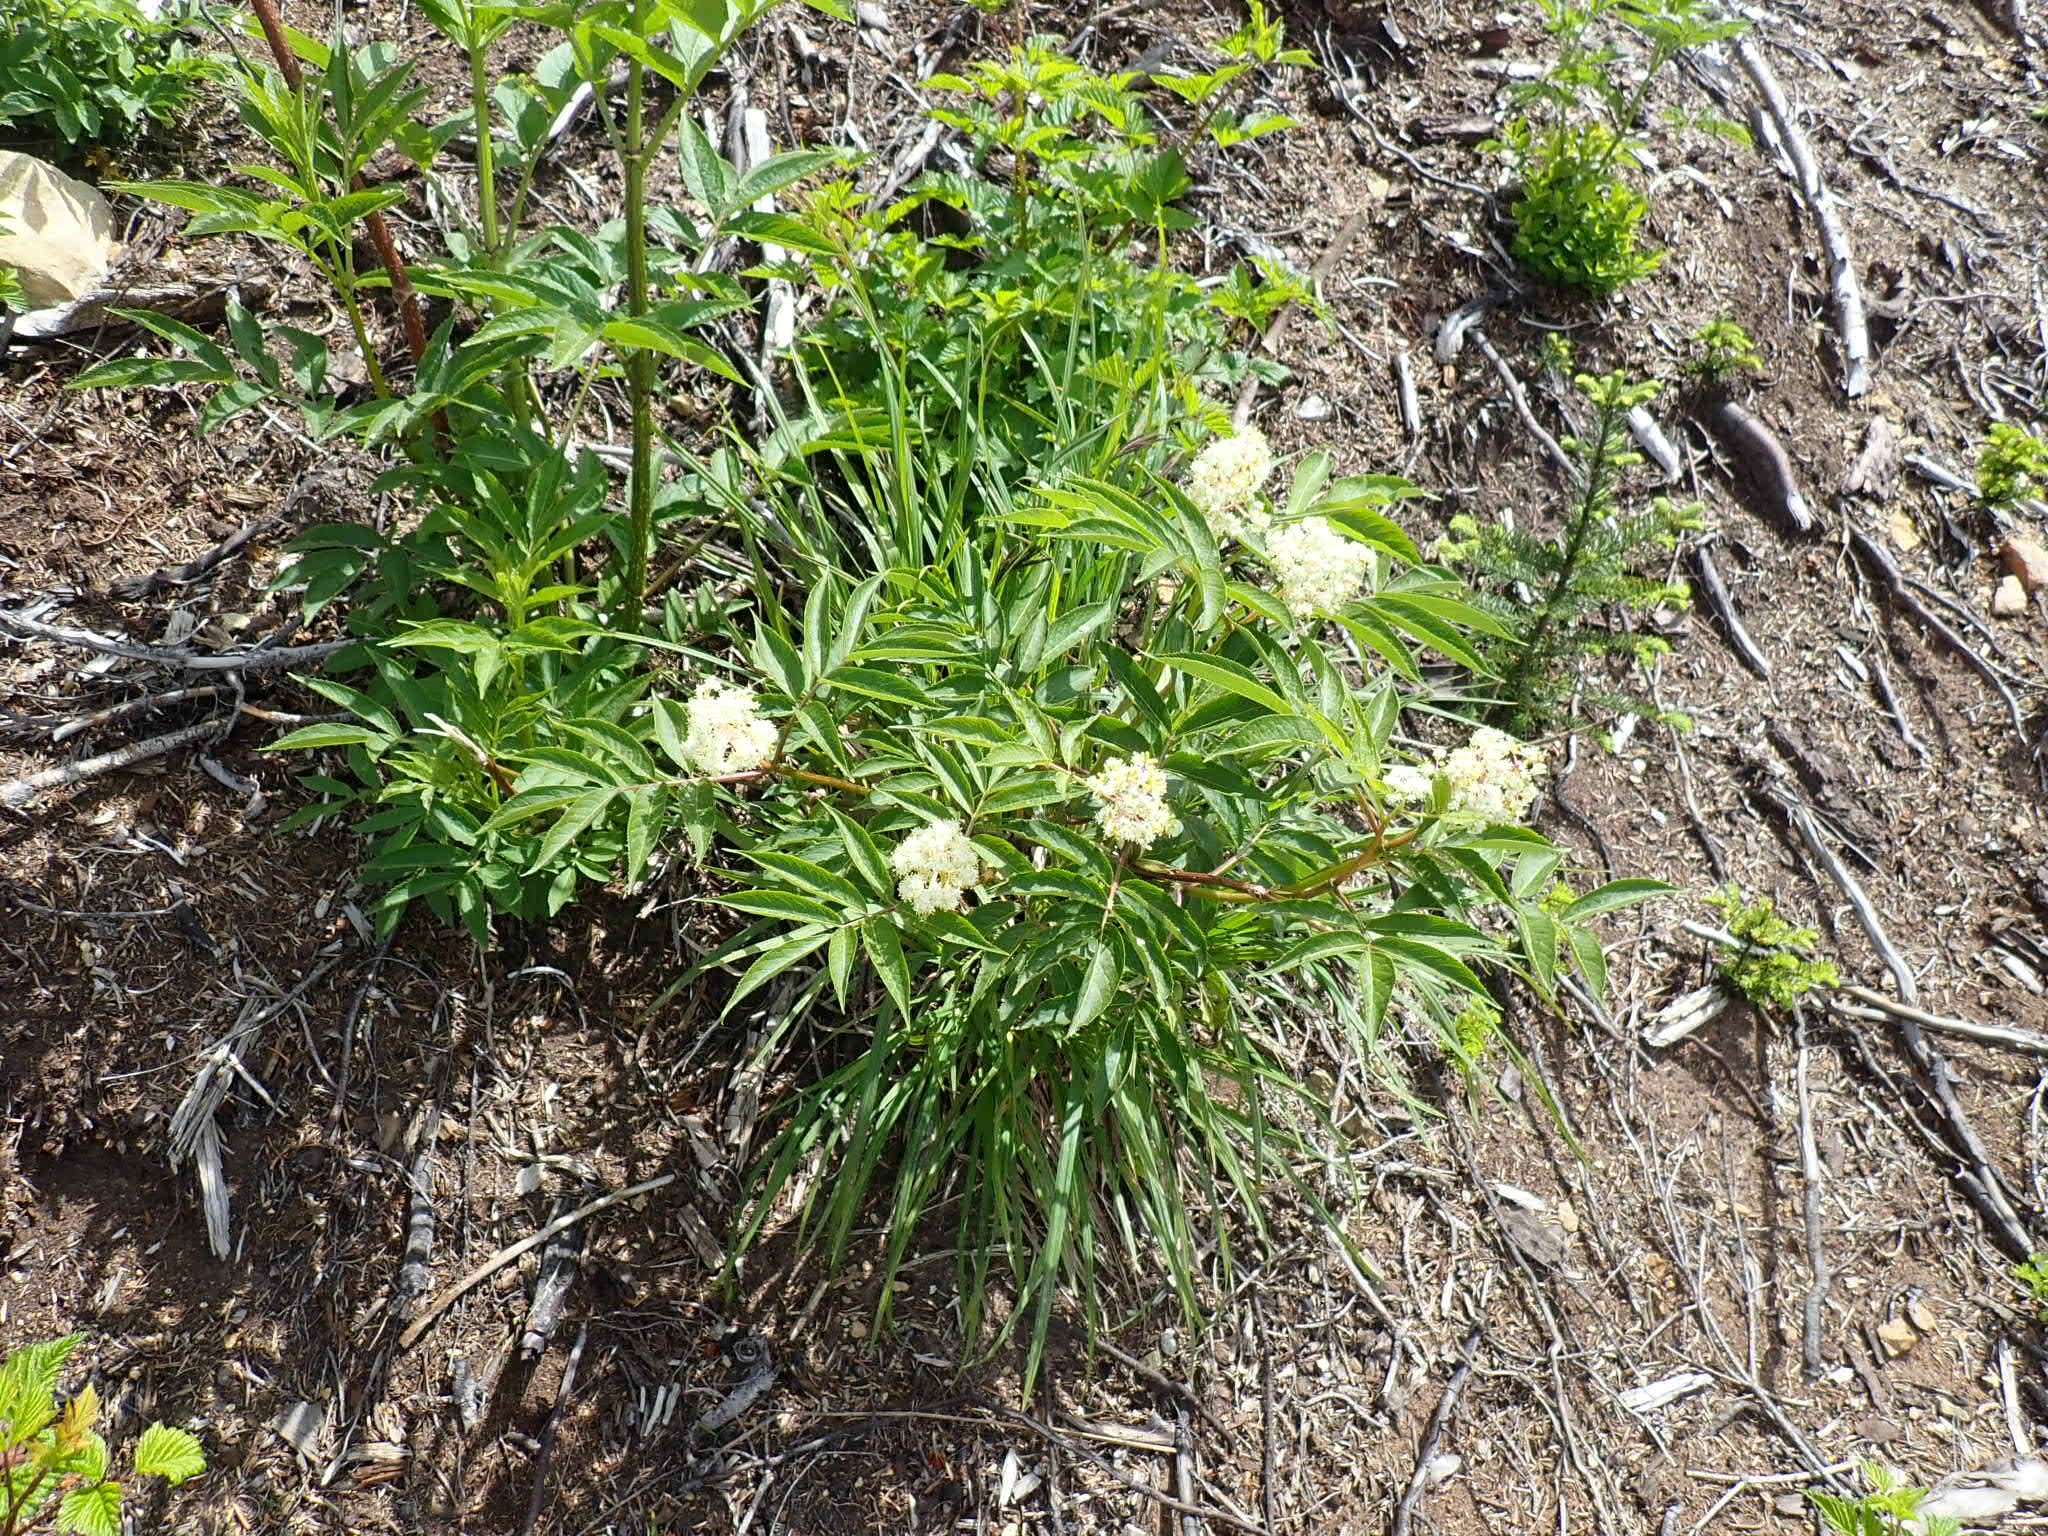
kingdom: Plantae
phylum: Tracheophyta
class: Magnoliopsida
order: Dipsacales
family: Viburnaceae
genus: Sambucus
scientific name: Sambucus racemosa
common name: Red-berried elder
